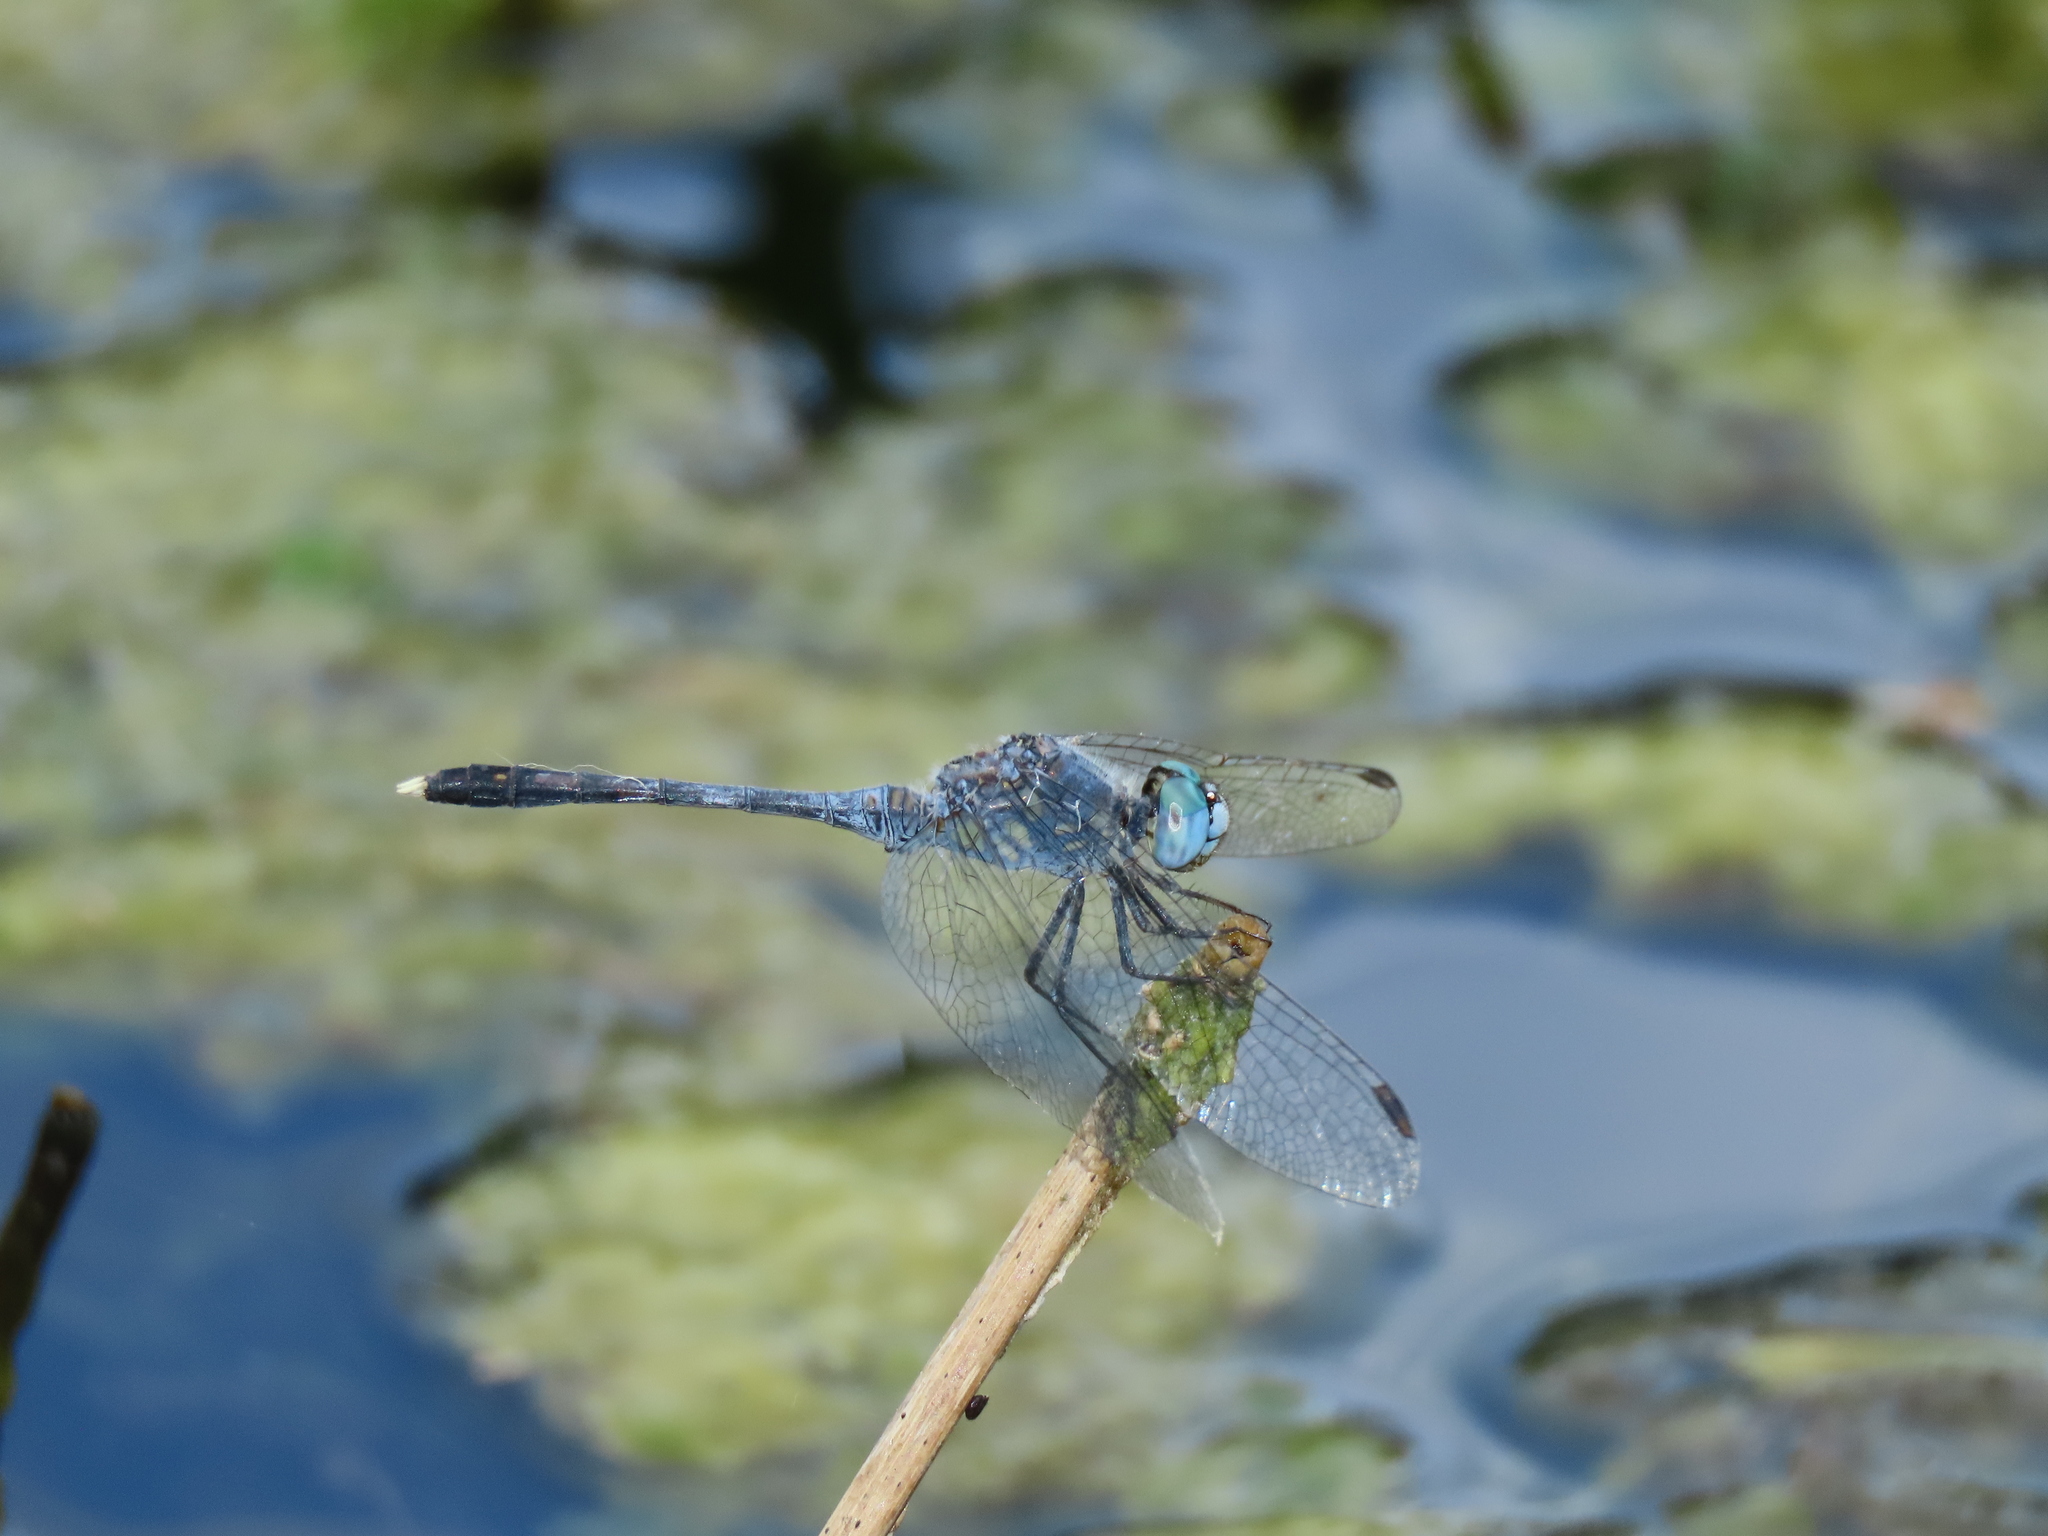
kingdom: Animalia
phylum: Arthropoda
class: Insecta
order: Odonata
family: Libellulidae
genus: Diplacodes
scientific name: Diplacodes trivialis
